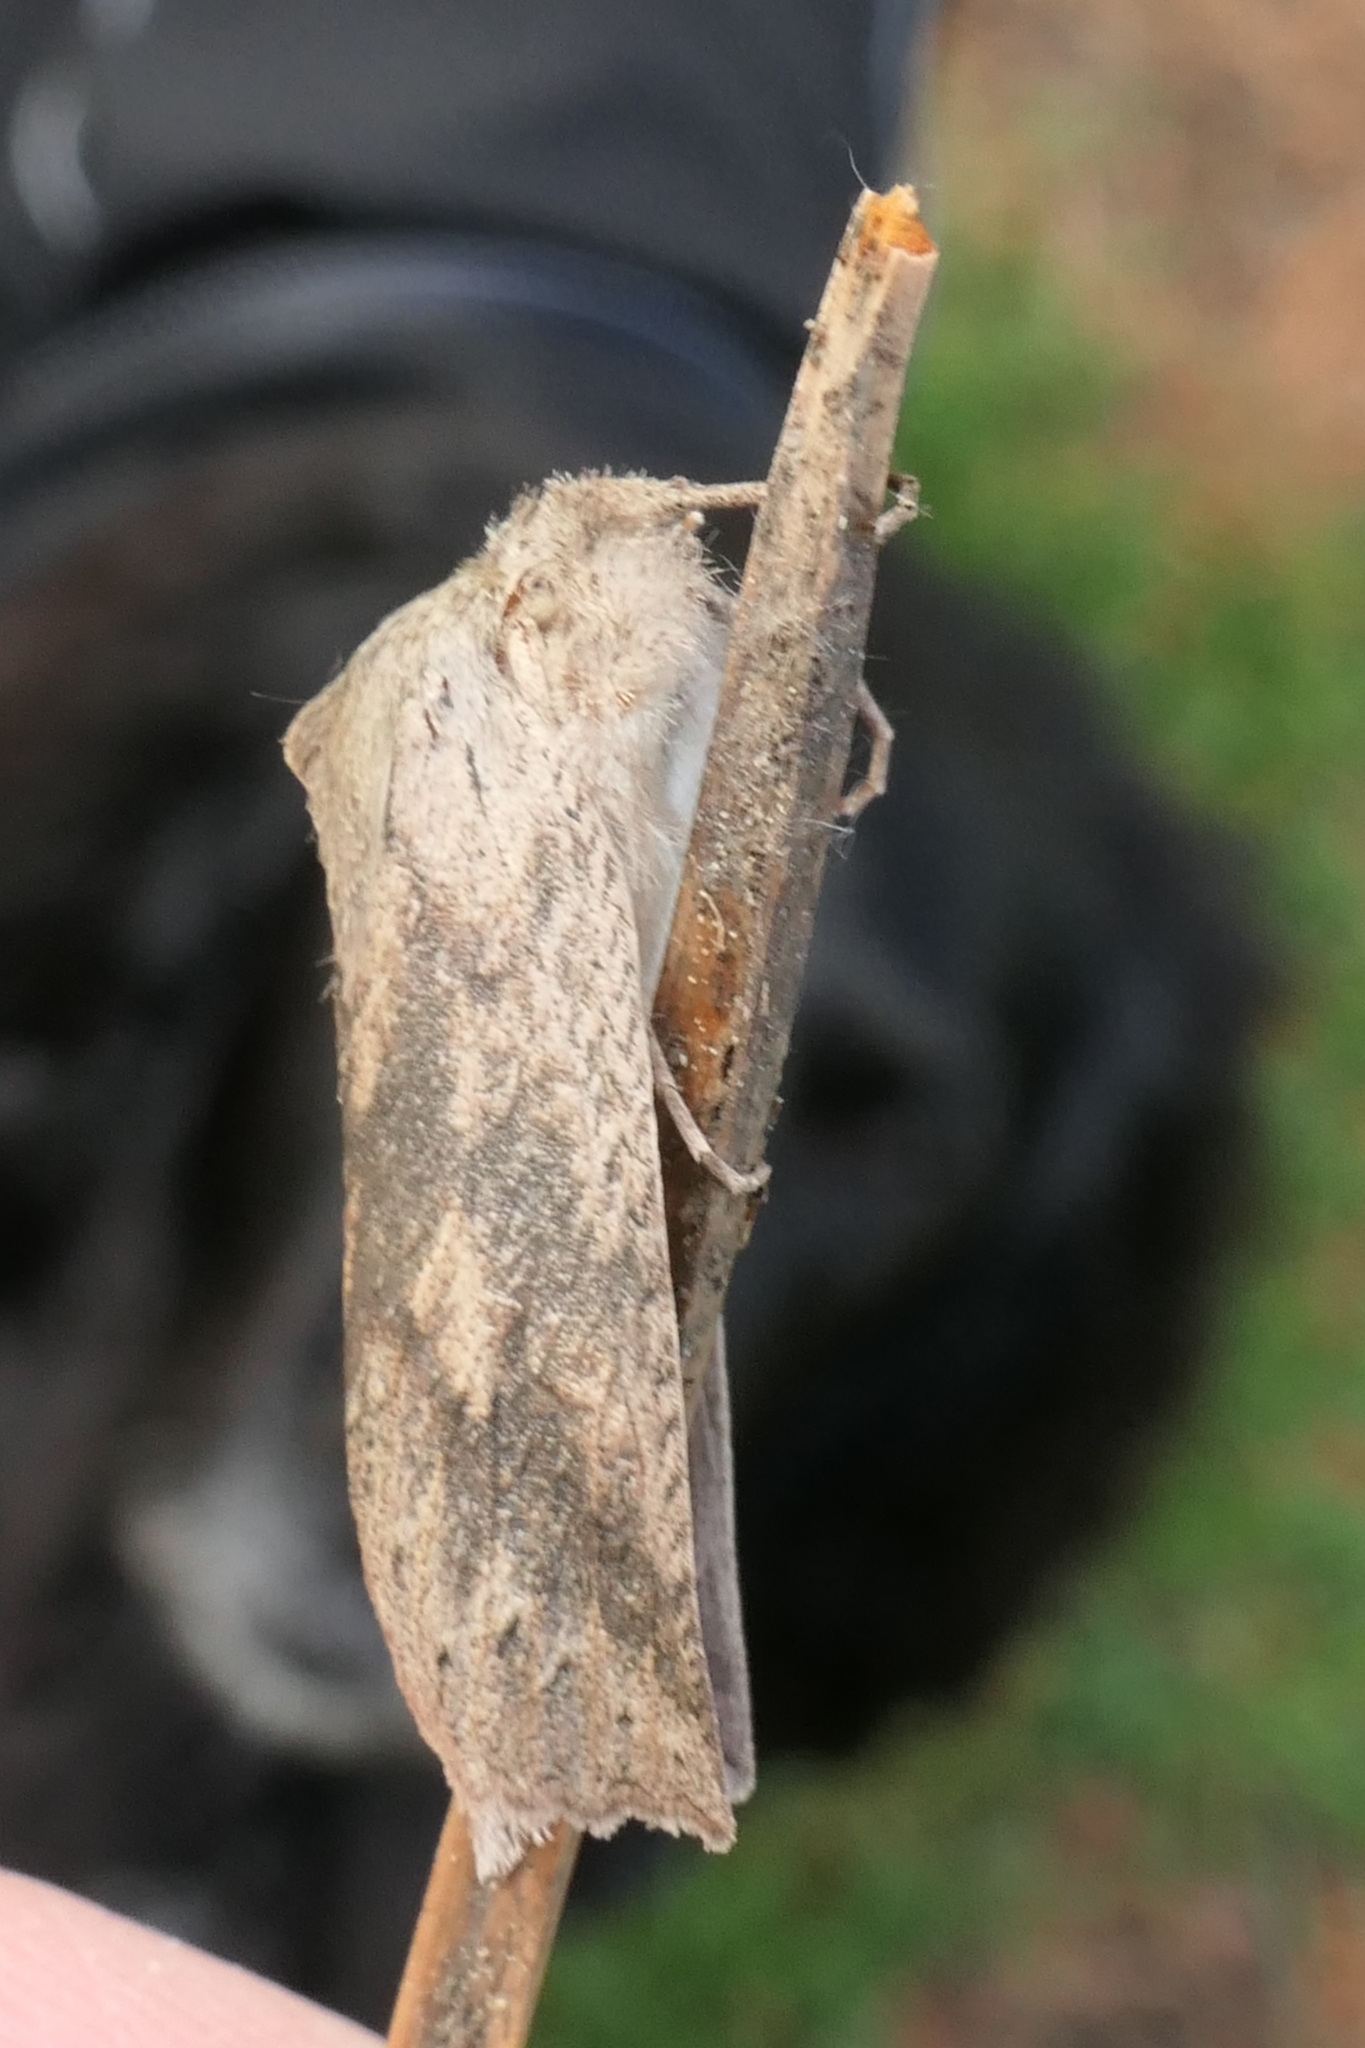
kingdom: Animalia
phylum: Arthropoda
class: Insecta
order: Lepidoptera
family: Geometridae
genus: Declana
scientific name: Declana leptomera
